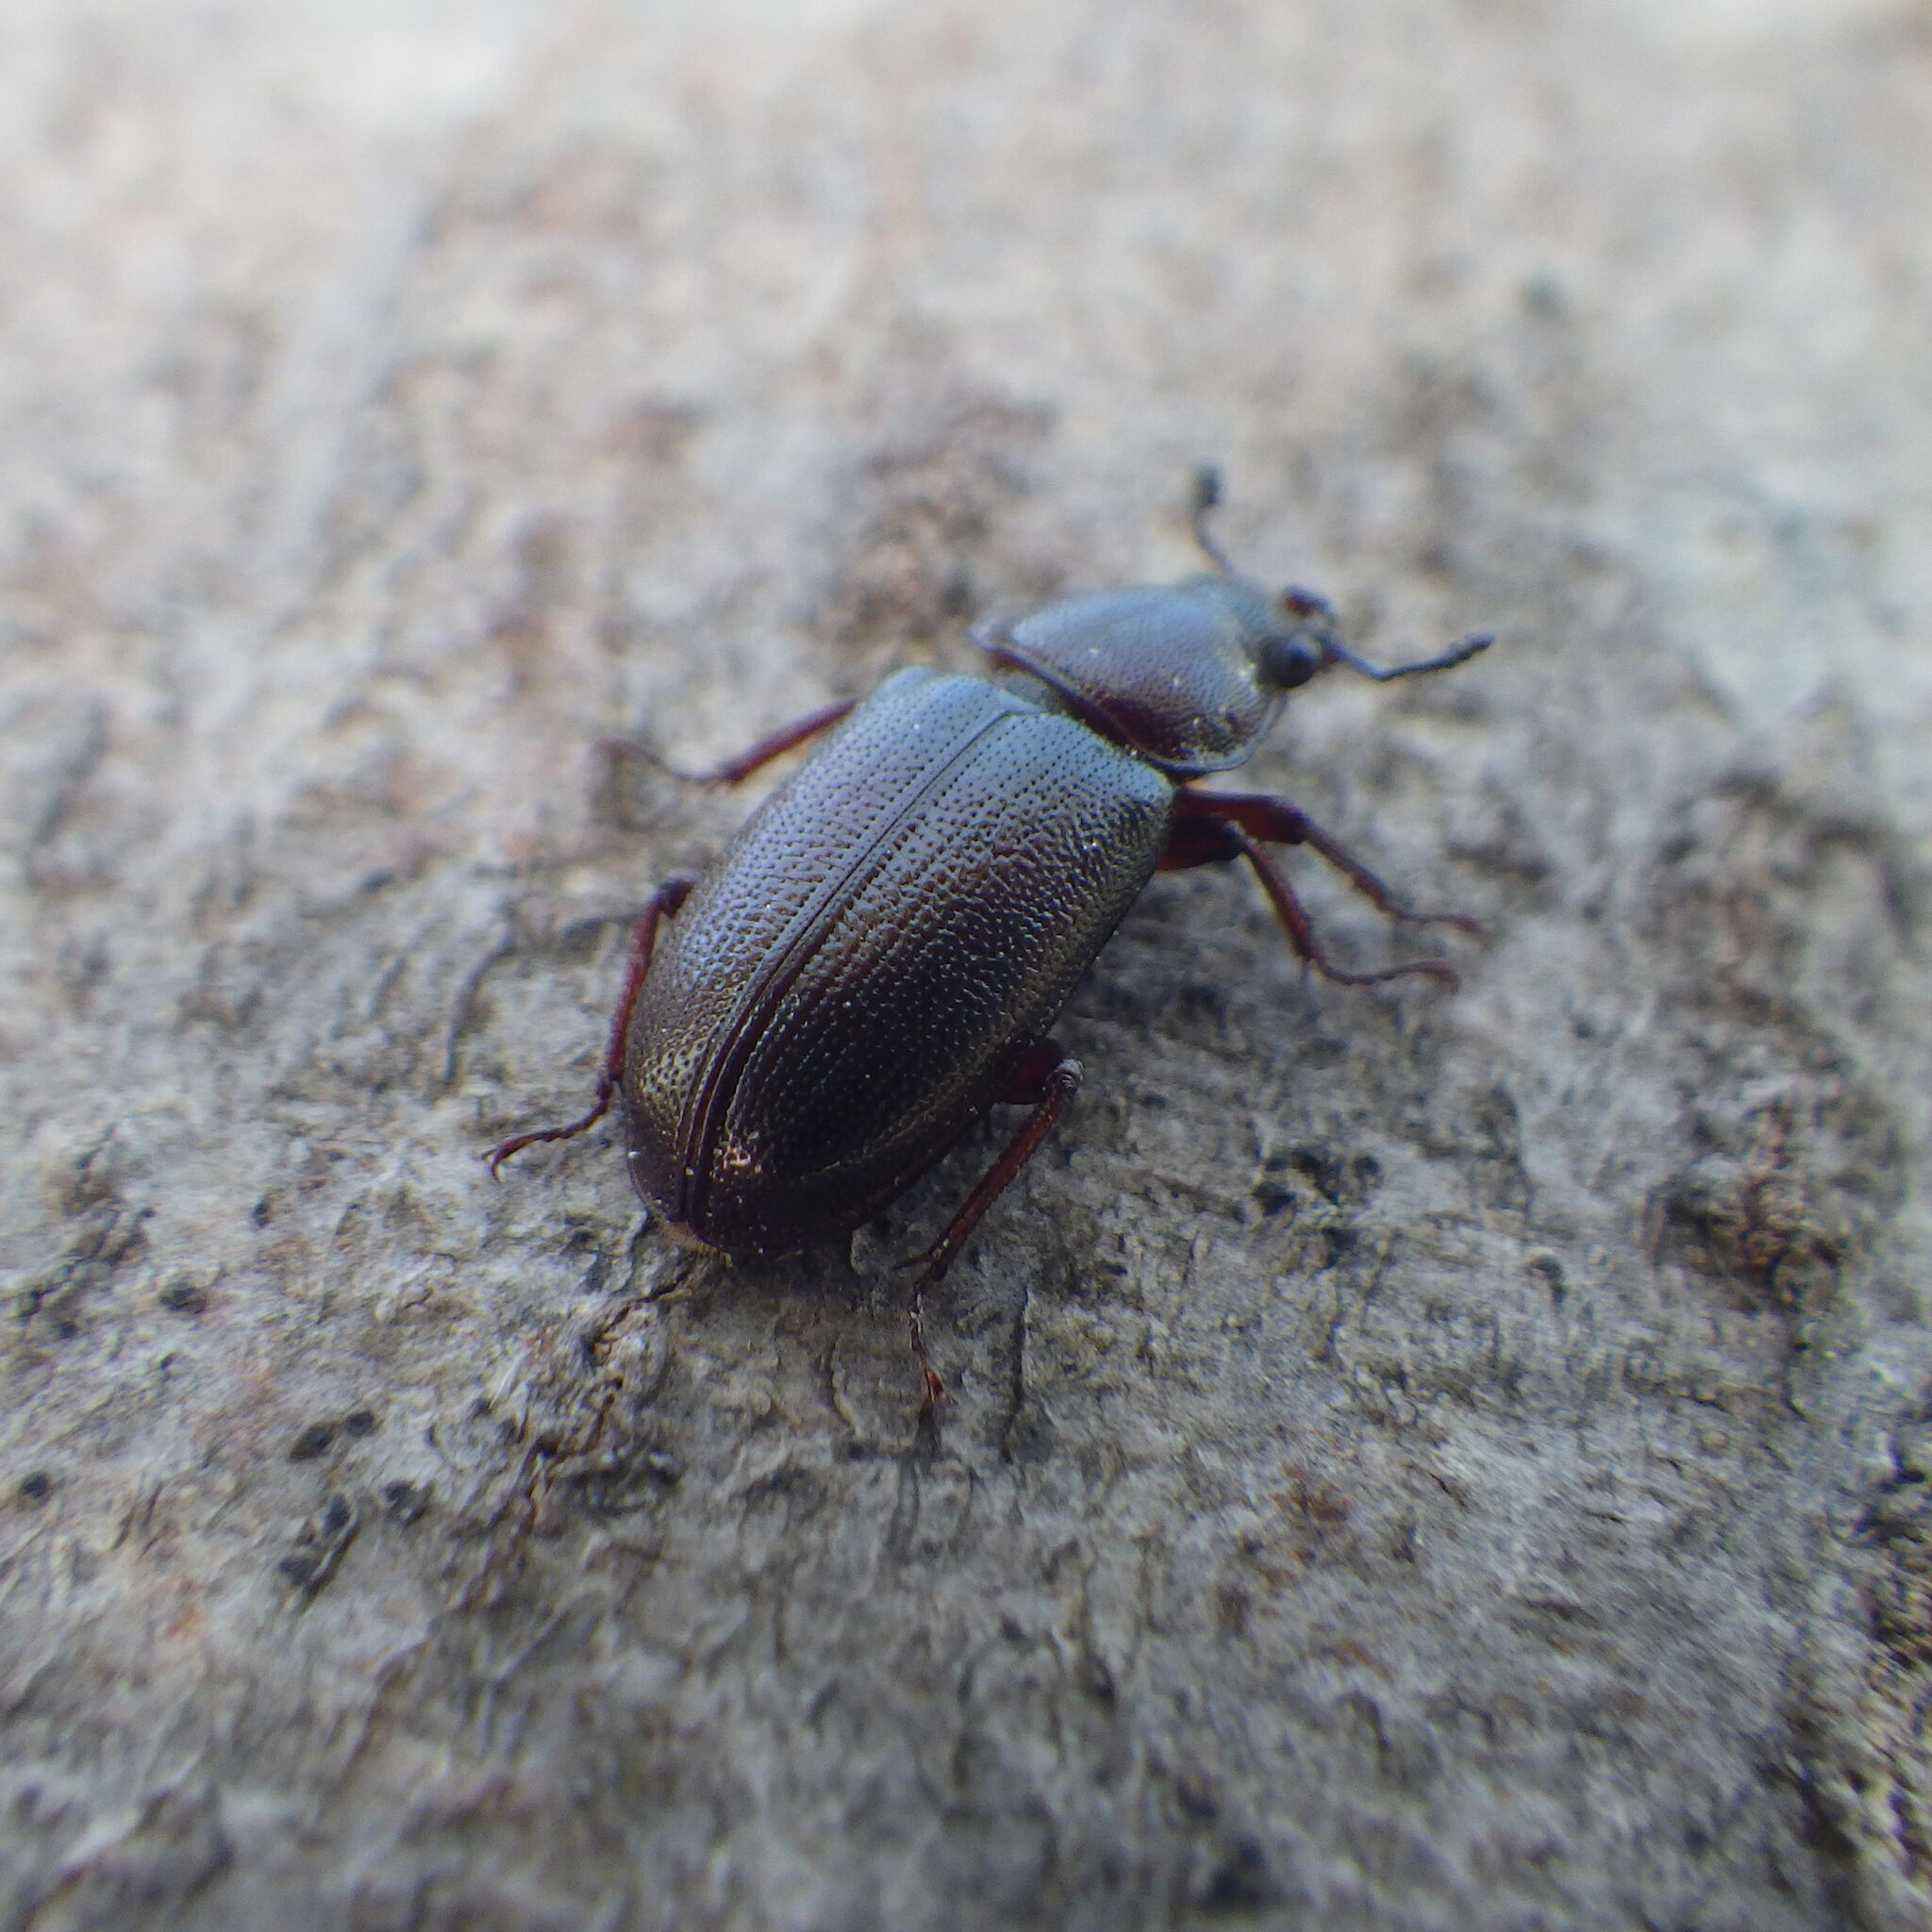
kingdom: Animalia
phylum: Arthropoda
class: Insecta
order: Coleoptera
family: Lucanidae
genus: Platycerus
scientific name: Platycerus quercus
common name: Oak stag beetle
